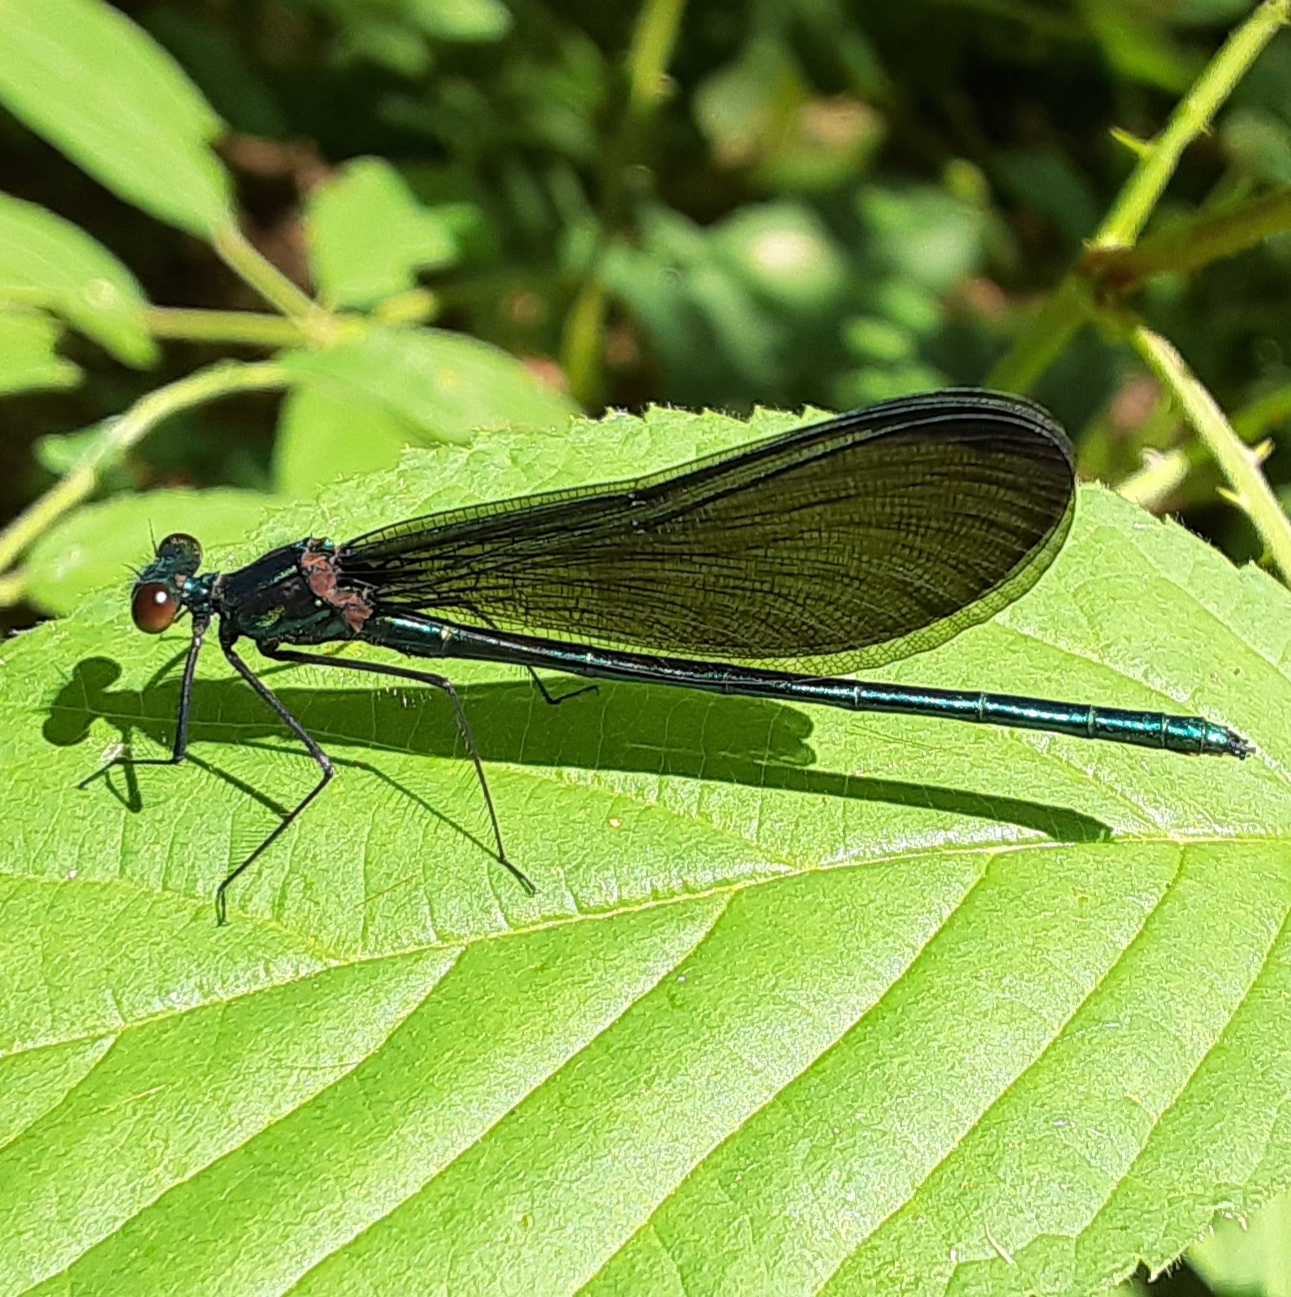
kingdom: Animalia
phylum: Arthropoda
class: Insecta
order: Odonata
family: Calopterygidae
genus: Calopteryx
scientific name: Calopteryx maculata
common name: Ebony jewelwing
